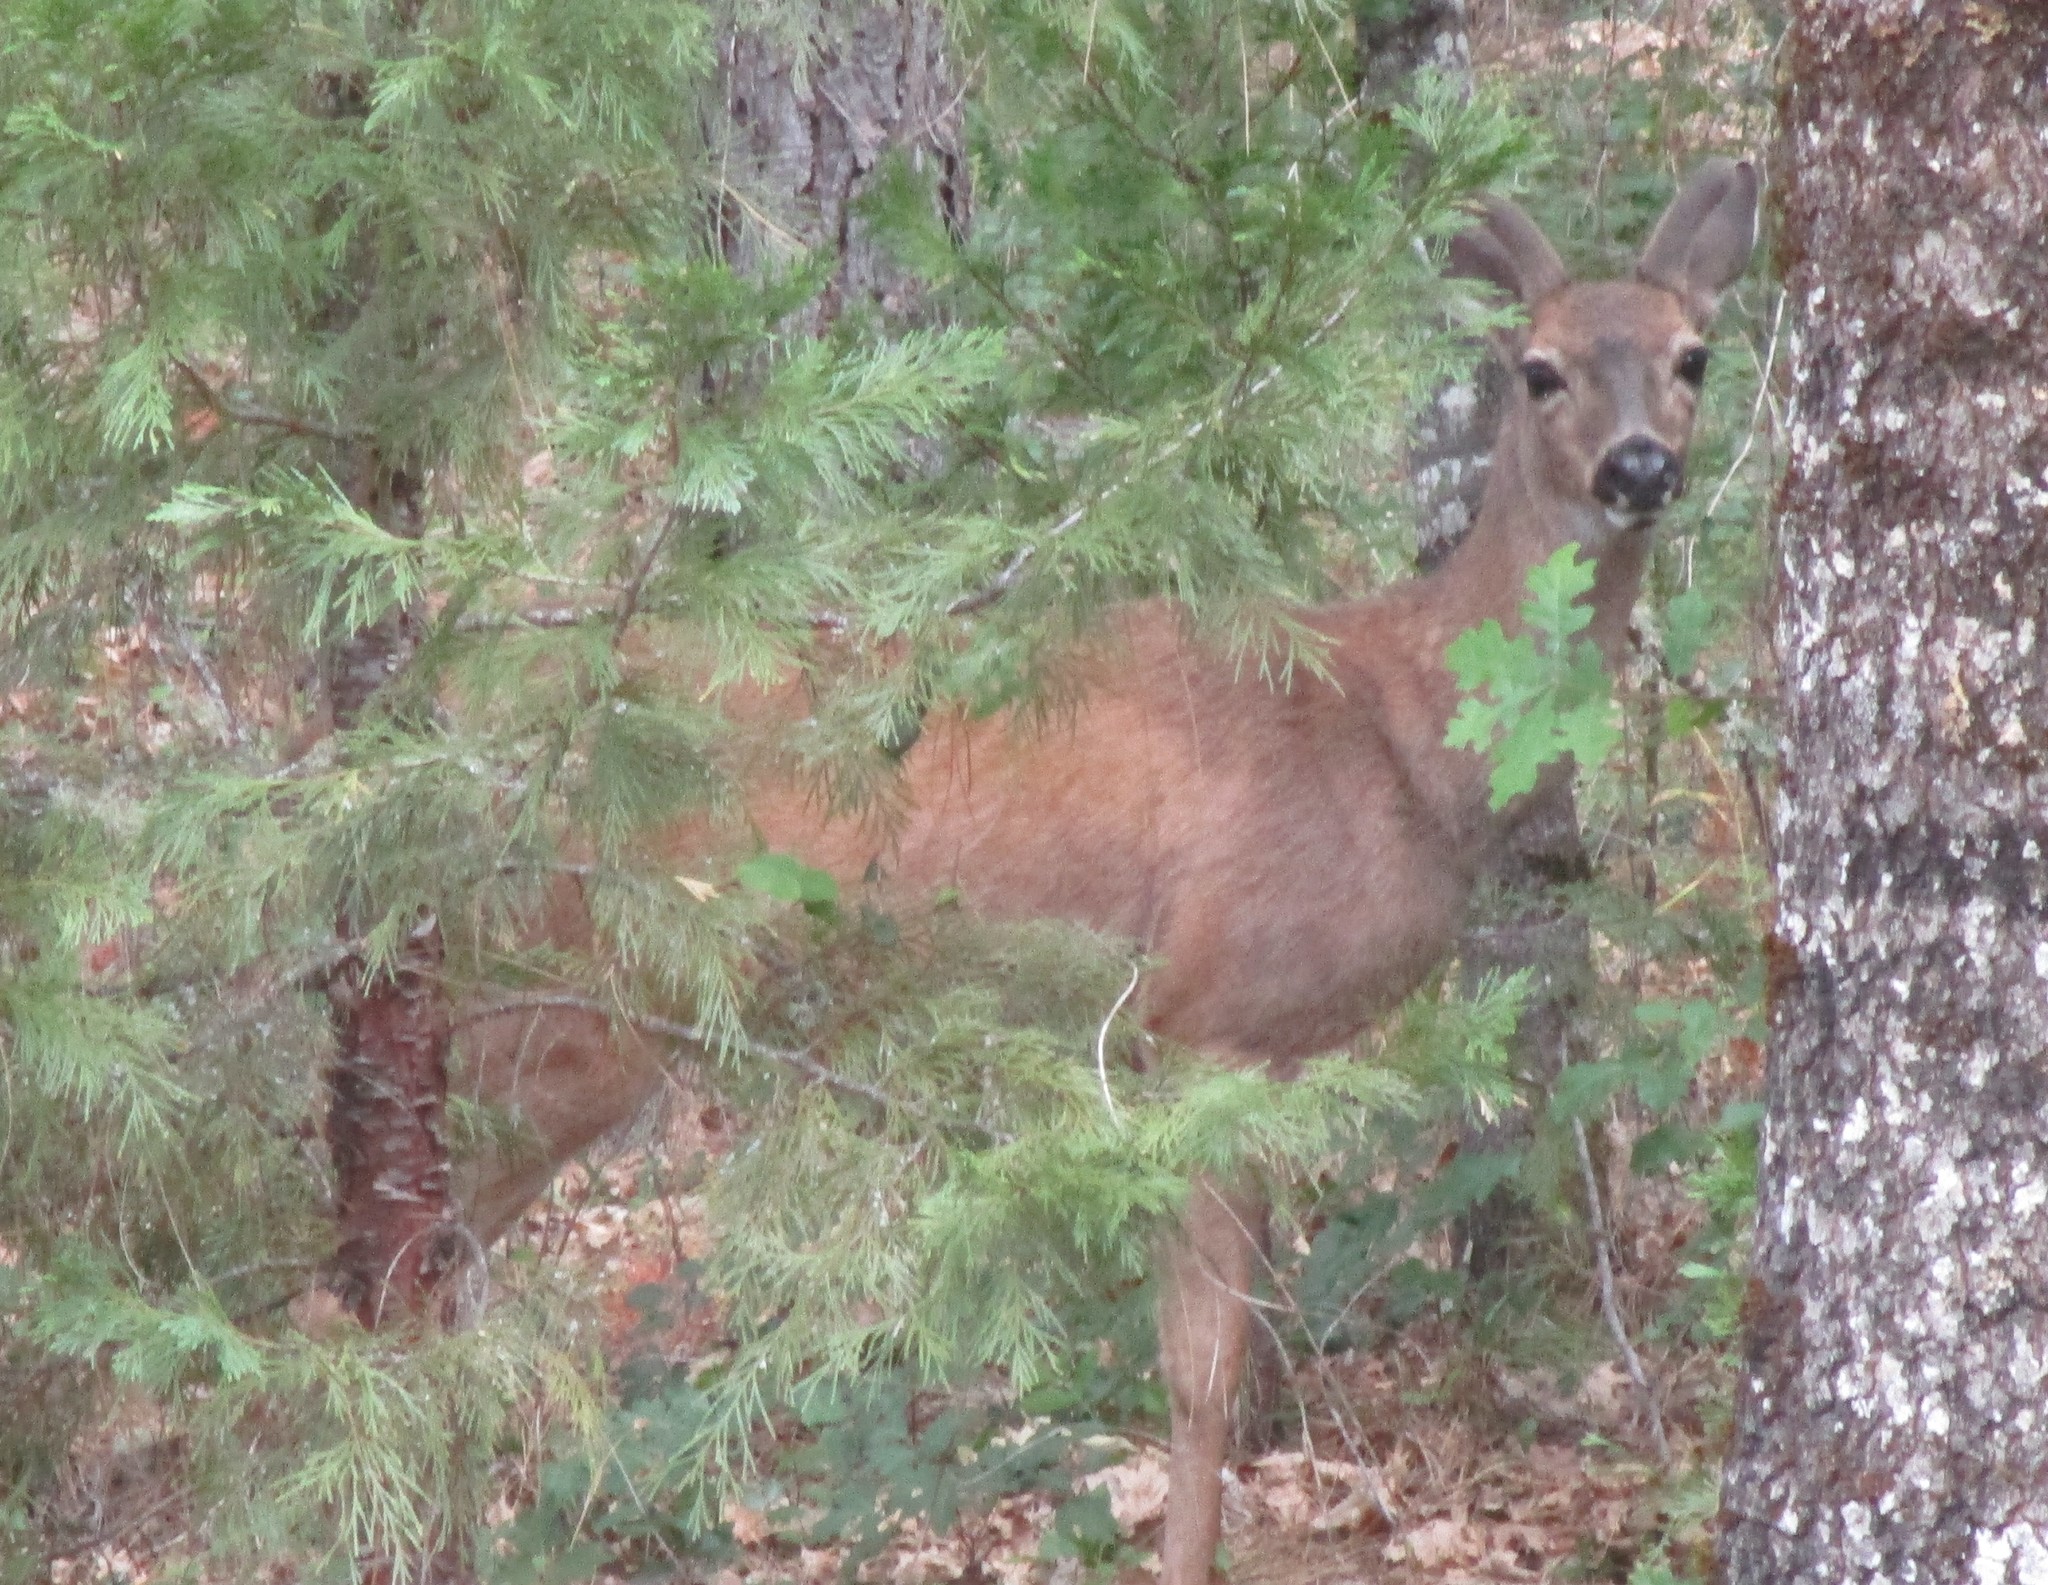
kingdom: Animalia
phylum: Chordata
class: Mammalia
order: Artiodactyla
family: Cervidae
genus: Odocoileus
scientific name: Odocoileus hemionus
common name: Mule deer
